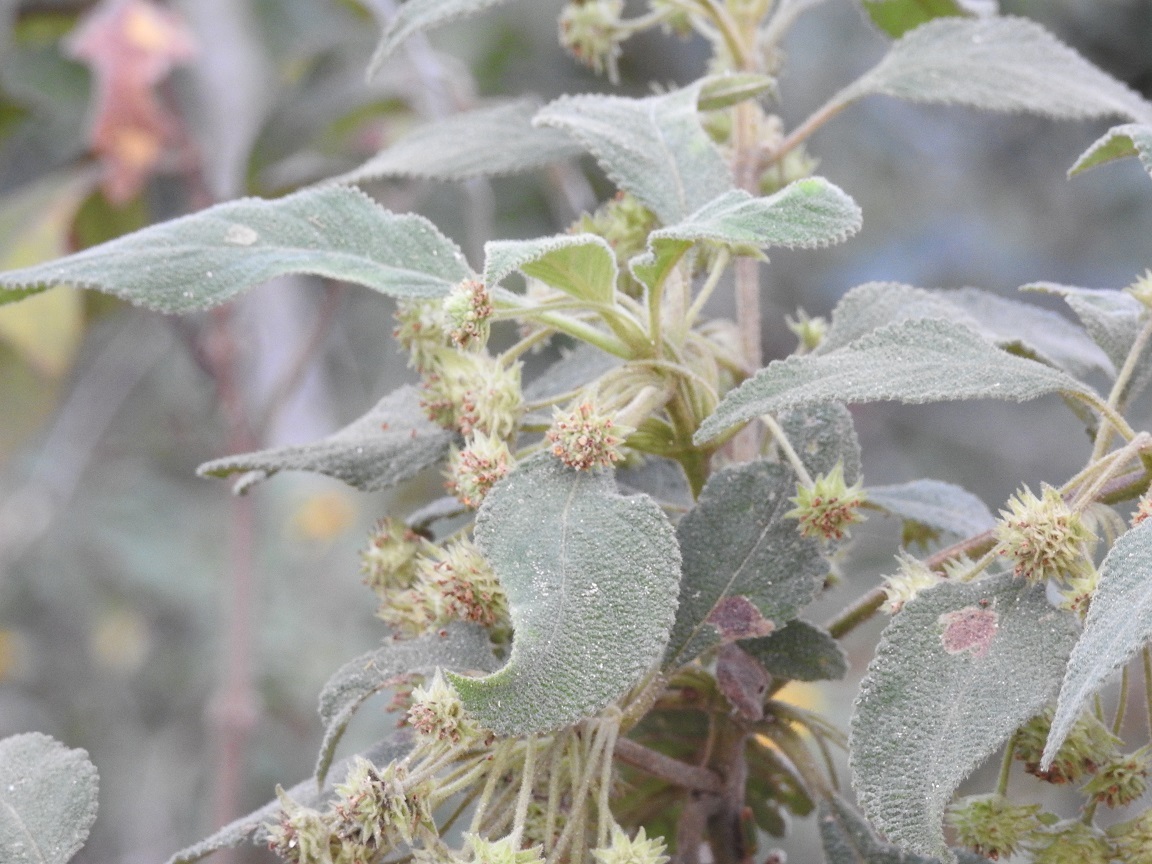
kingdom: Plantae
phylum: Tracheophyta
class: Magnoliopsida
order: Lamiales
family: Verbenaceae
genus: Lippia
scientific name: Lippia chiapasensis
